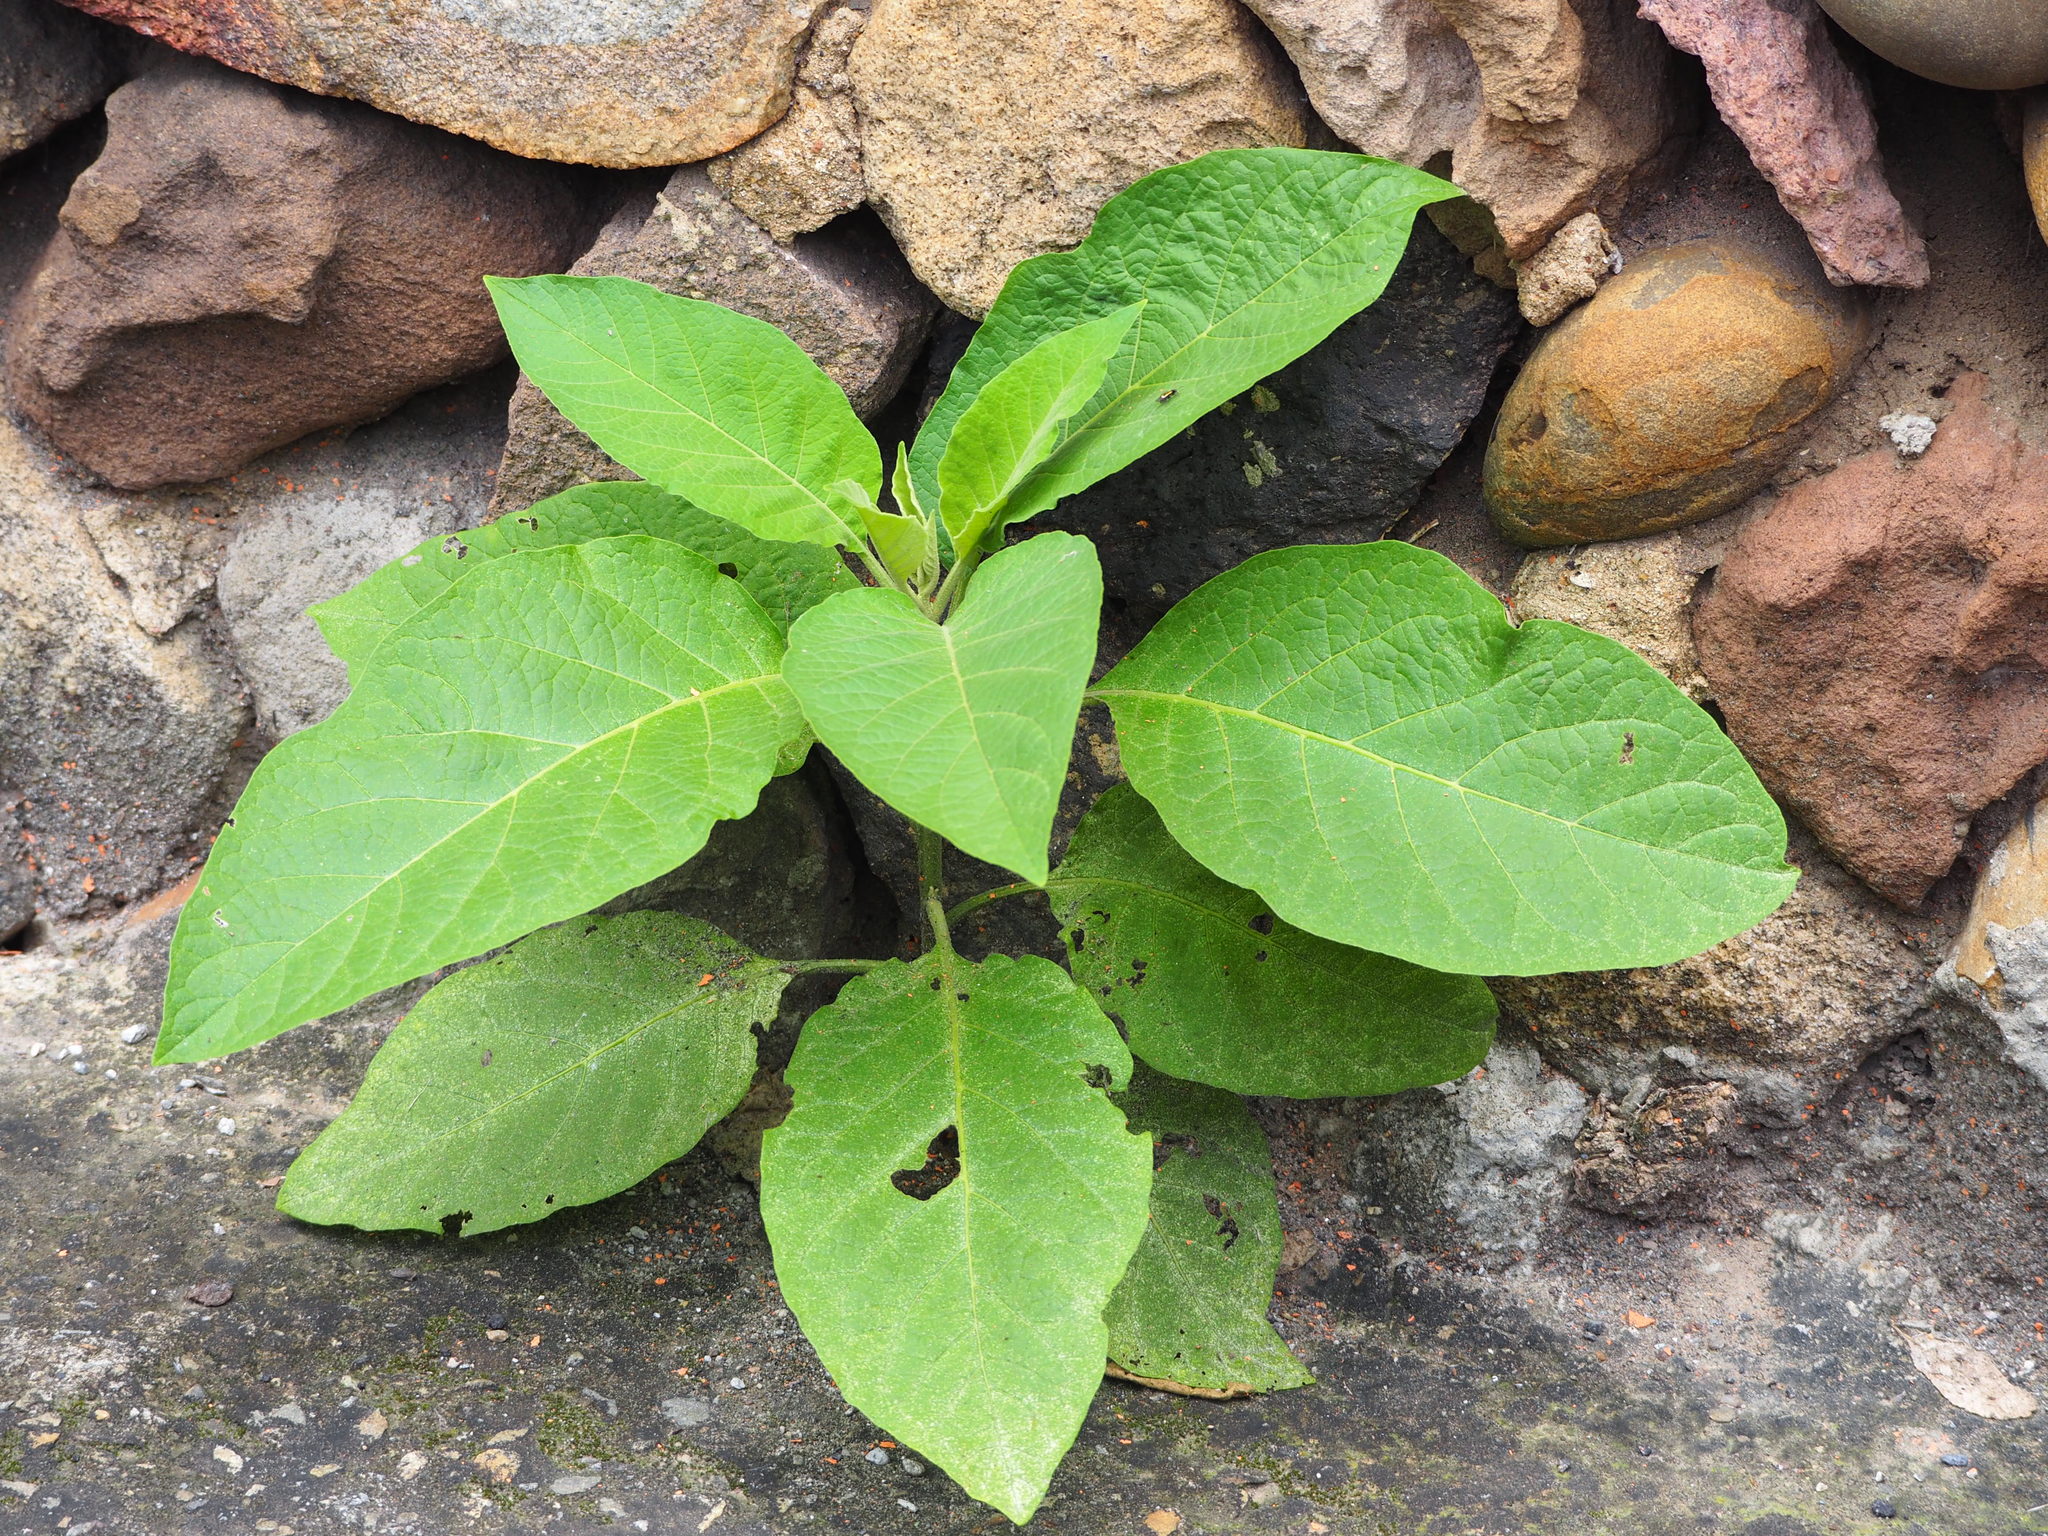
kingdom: Plantae
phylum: Tracheophyta
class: Magnoliopsida
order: Solanales
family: Solanaceae
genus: Brugmansia
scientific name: Brugmansia suaveolens
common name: Angel's tears
